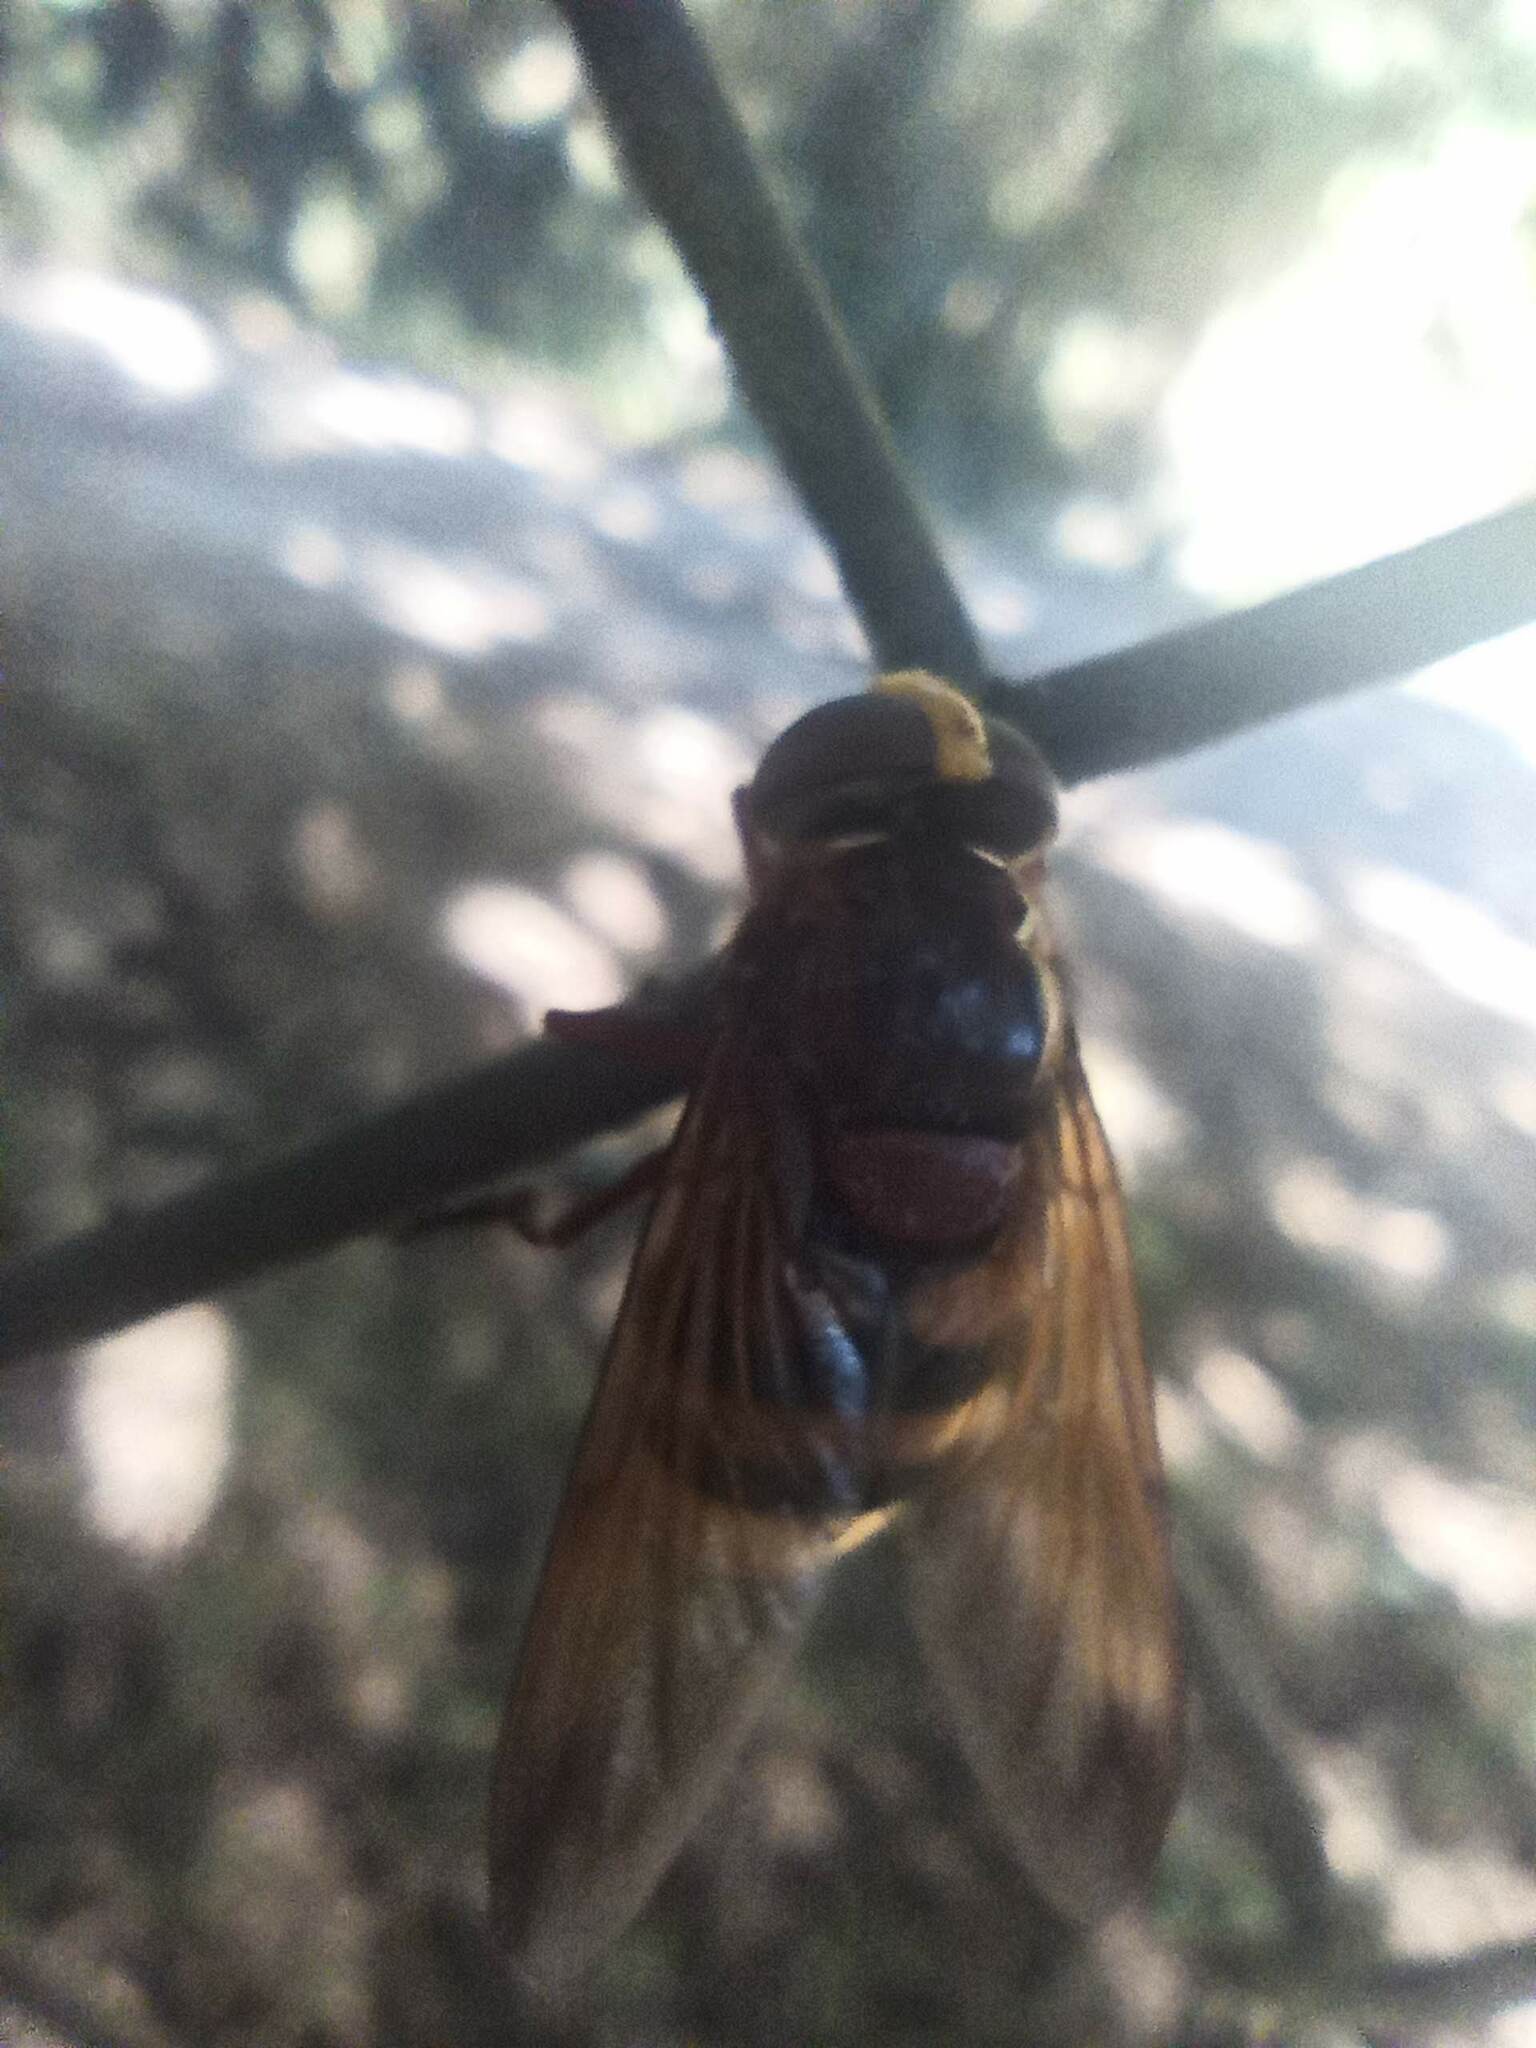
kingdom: Animalia
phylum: Arthropoda
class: Insecta
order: Diptera
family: Syrphidae
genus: Volucella
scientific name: Volucella zonaria
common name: Hornet hoverfly
